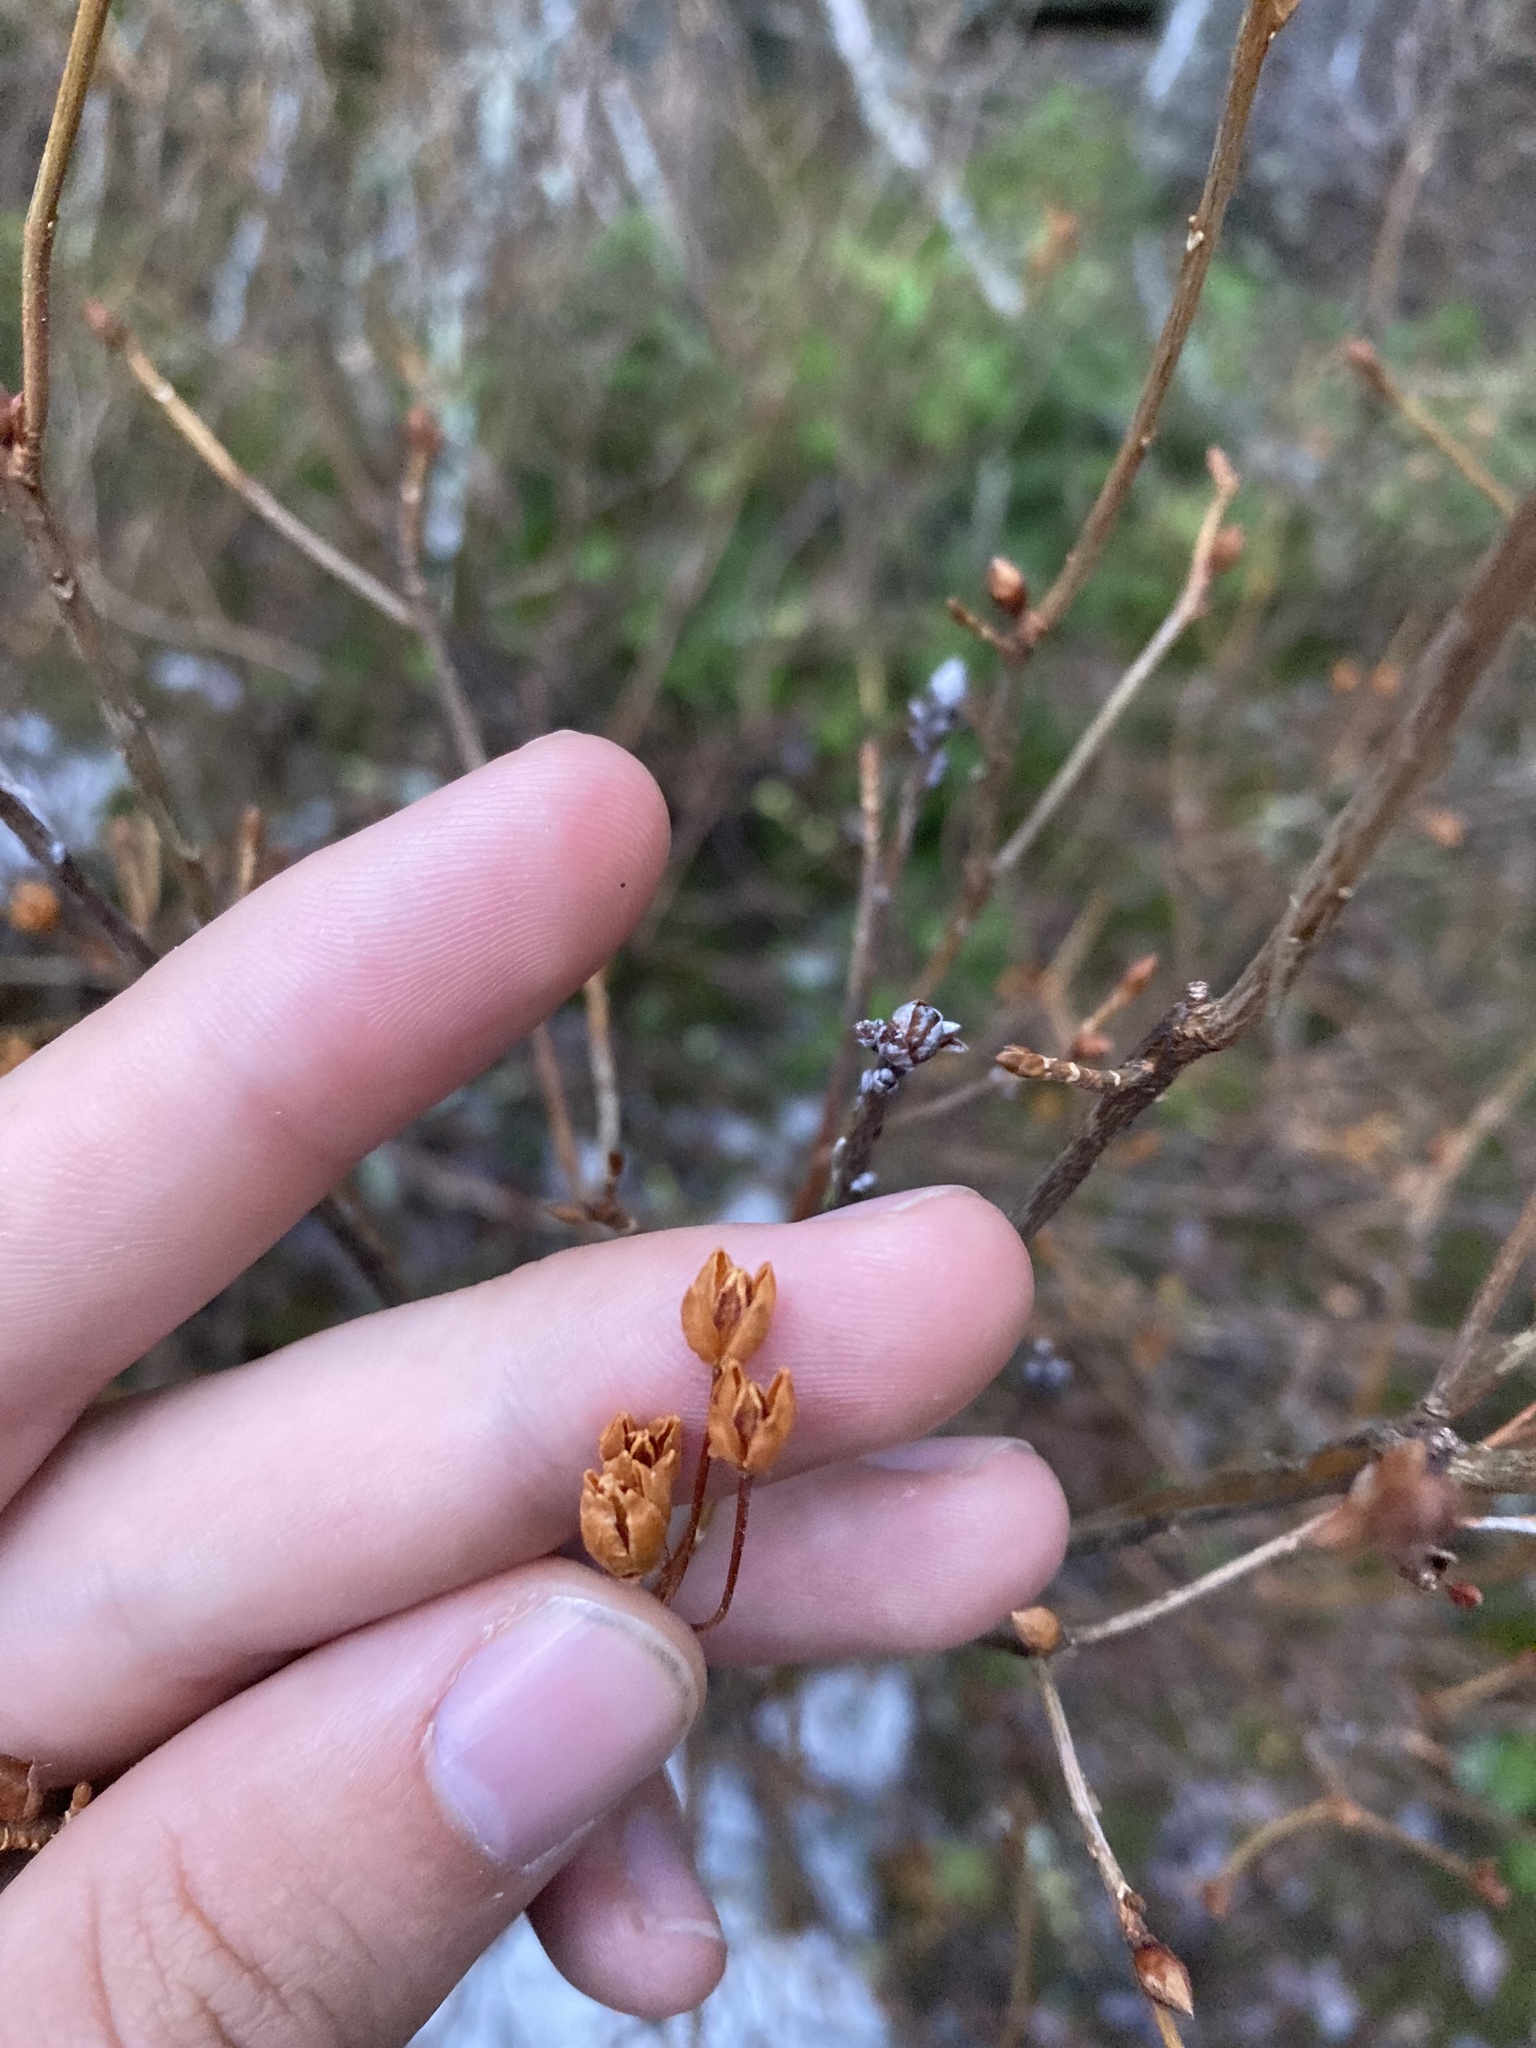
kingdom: Plantae
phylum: Tracheophyta
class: Magnoliopsida
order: Ericales
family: Ericaceae
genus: Rhododendron
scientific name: Rhododendron menziesii
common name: Pacific menziesia
